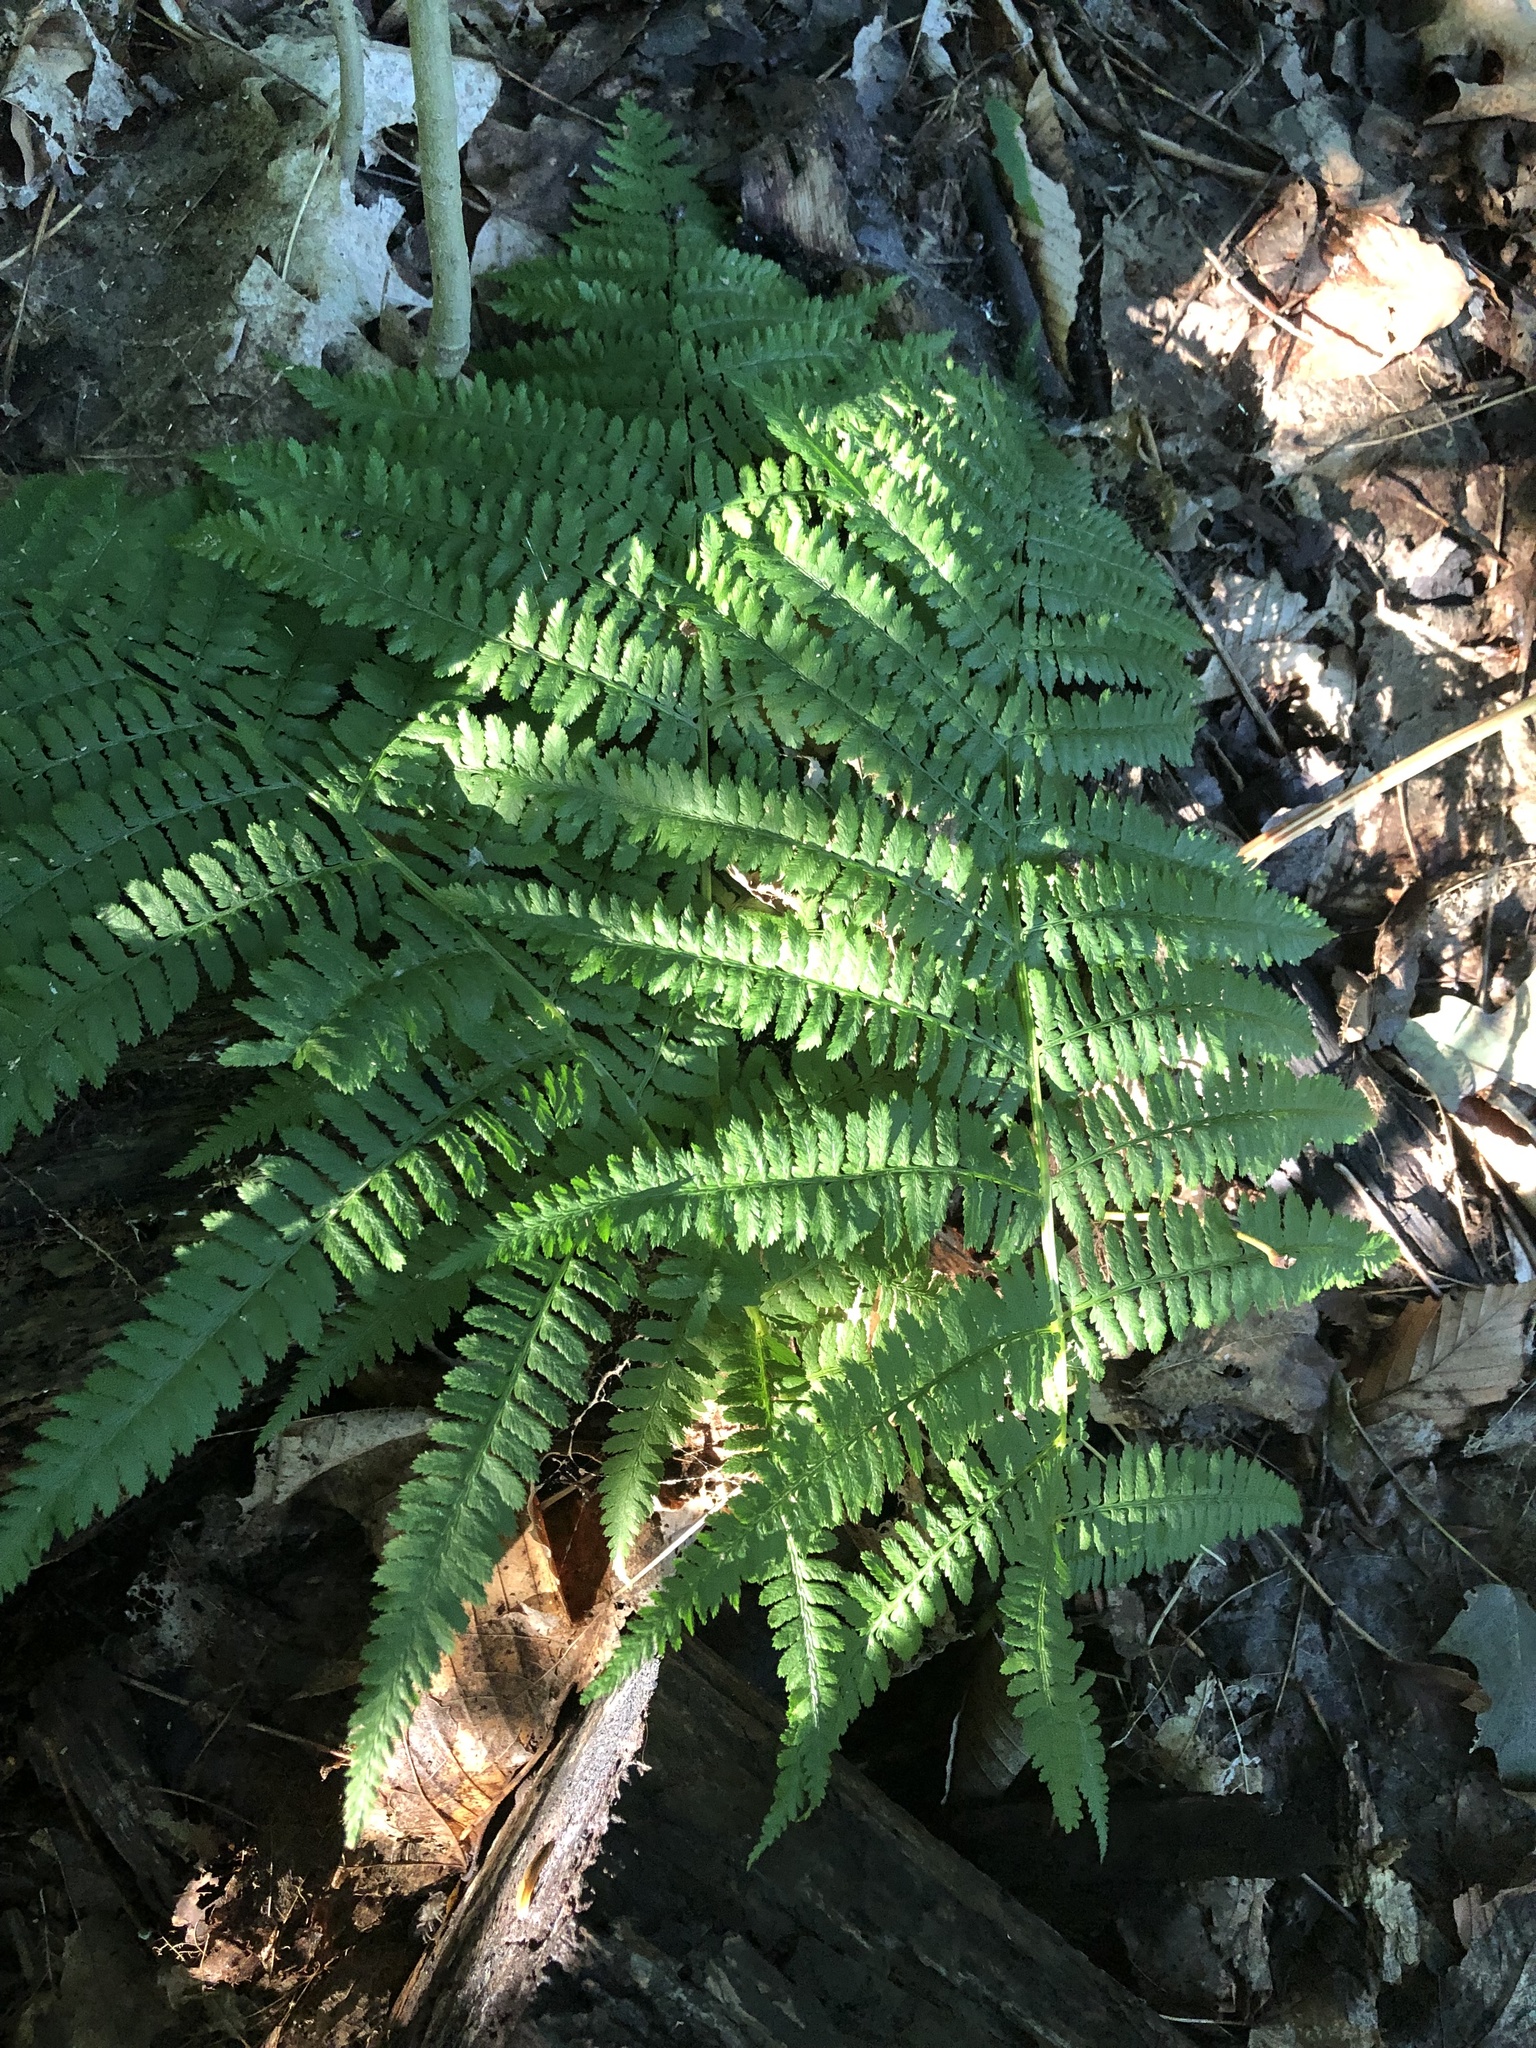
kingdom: Plantae
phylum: Tracheophyta
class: Polypodiopsida
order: Polypodiales
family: Athyriaceae
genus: Athyrium
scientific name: Athyrium angustum
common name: Northern lady fern
